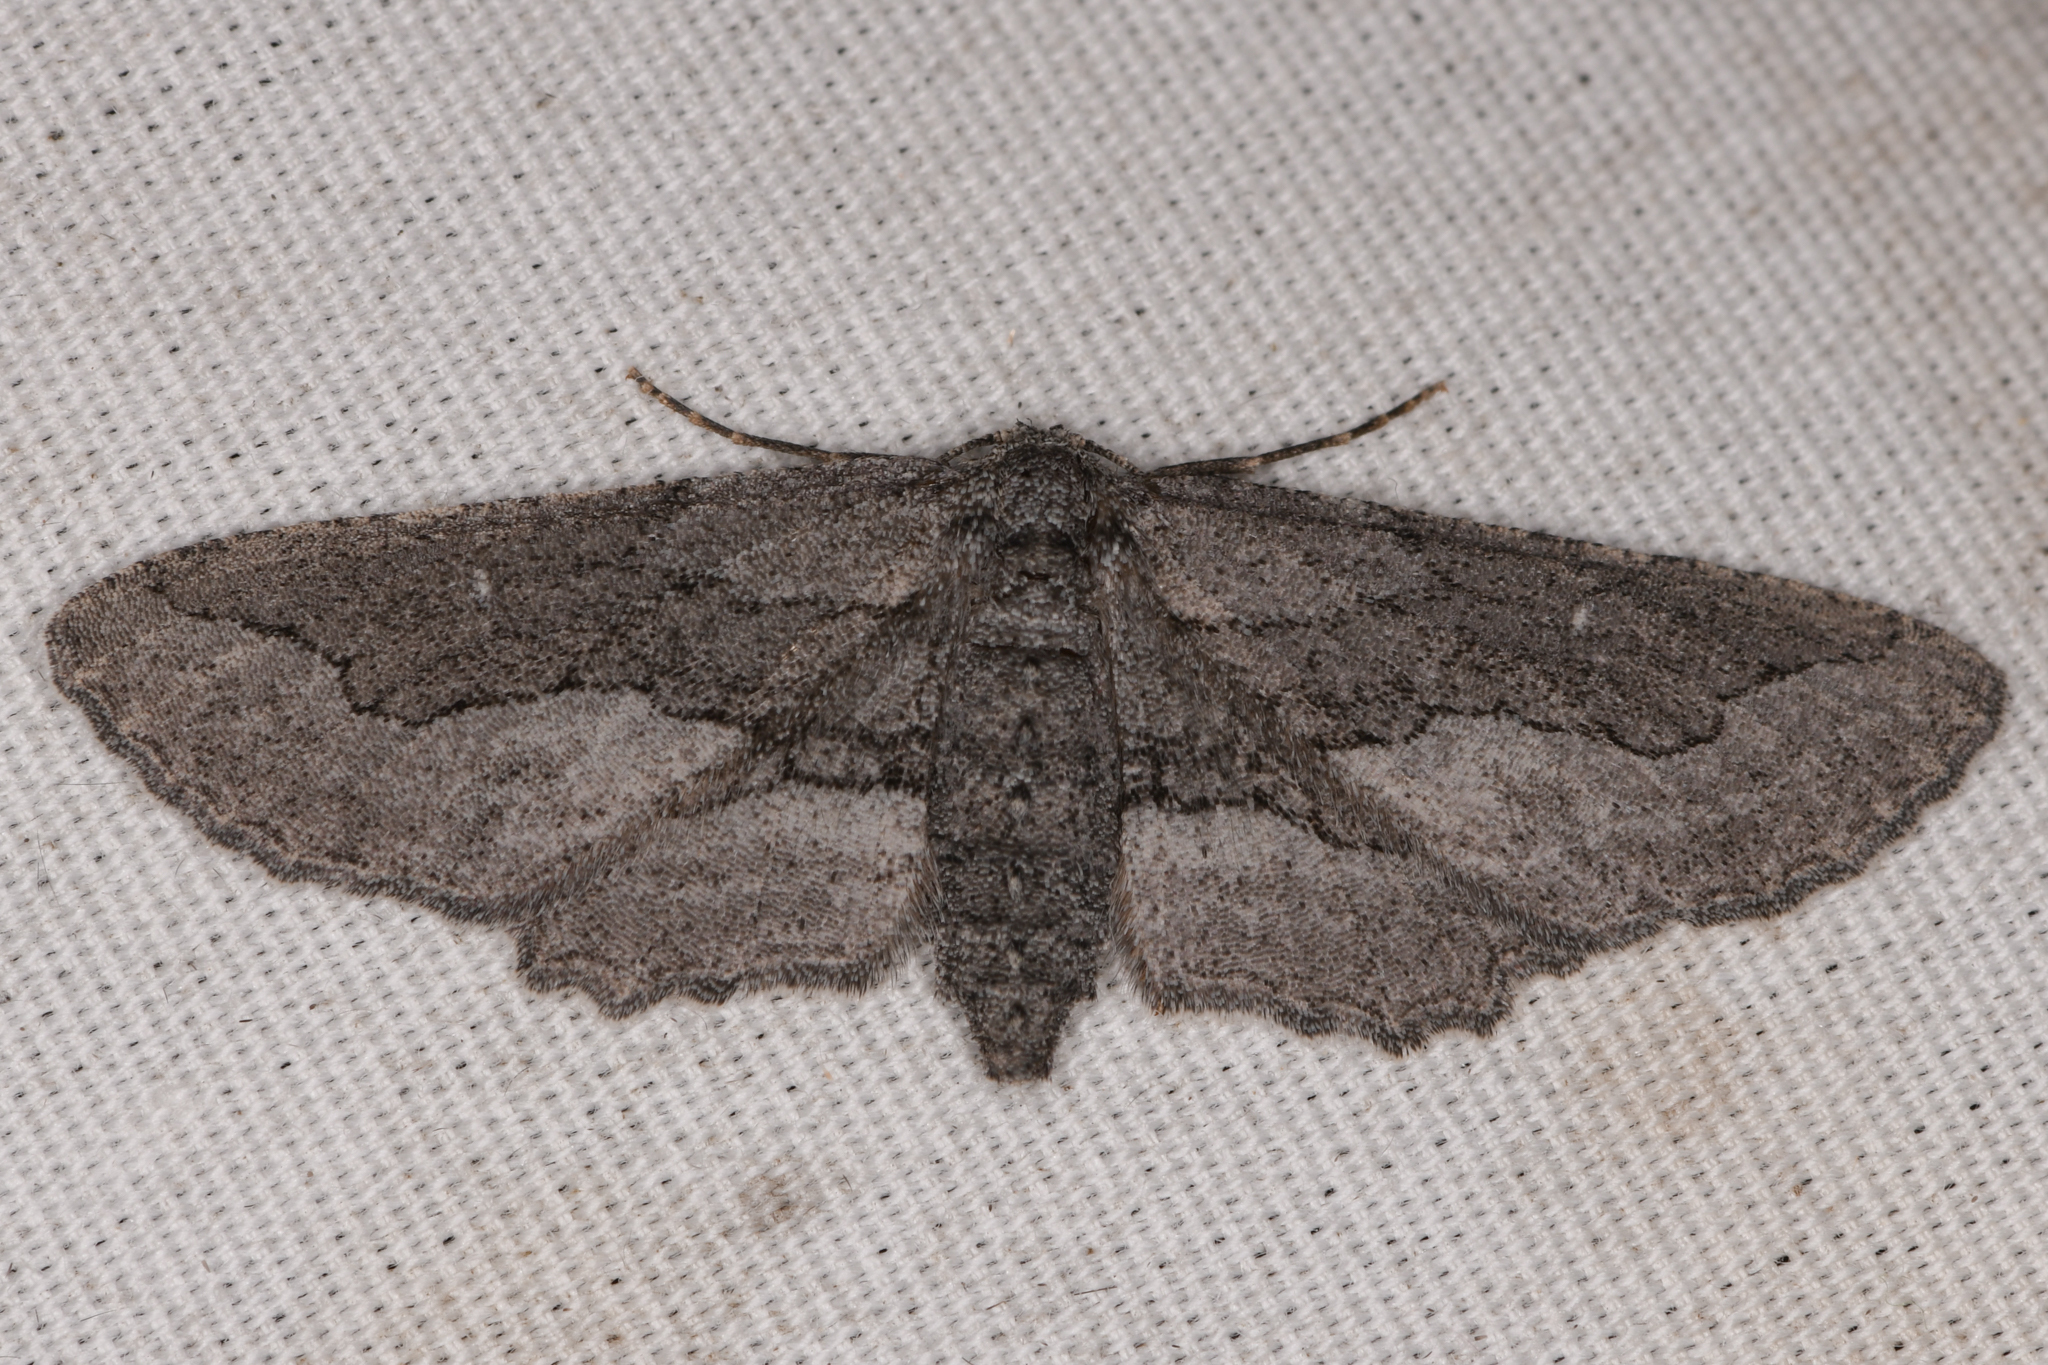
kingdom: Animalia
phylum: Arthropoda
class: Insecta
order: Lepidoptera
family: Geometridae
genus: Aethaloida
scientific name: Aethaloida packardaria
